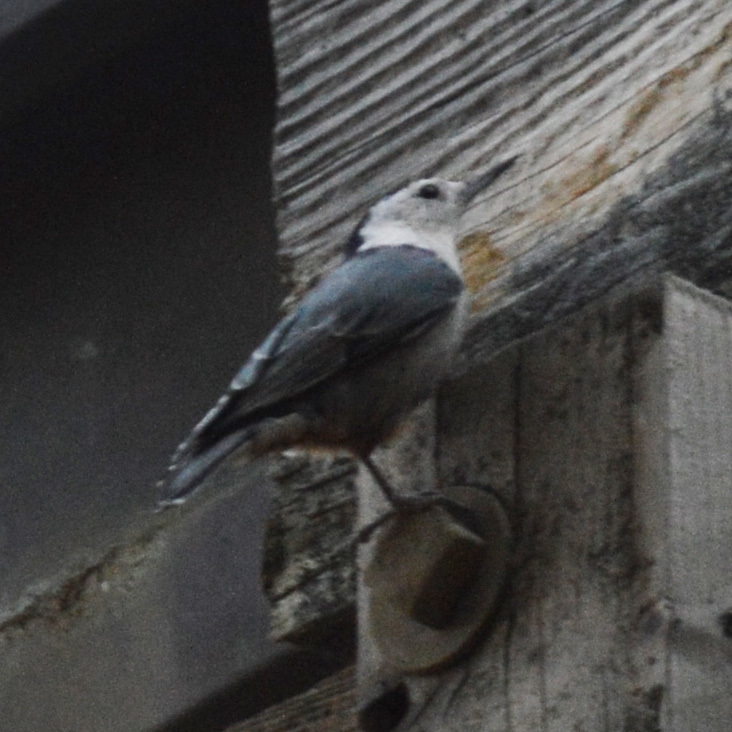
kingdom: Animalia
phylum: Chordata
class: Aves
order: Passeriformes
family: Sittidae
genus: Sitta
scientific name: Sitta carolinensis
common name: White-breasted nuthatch
